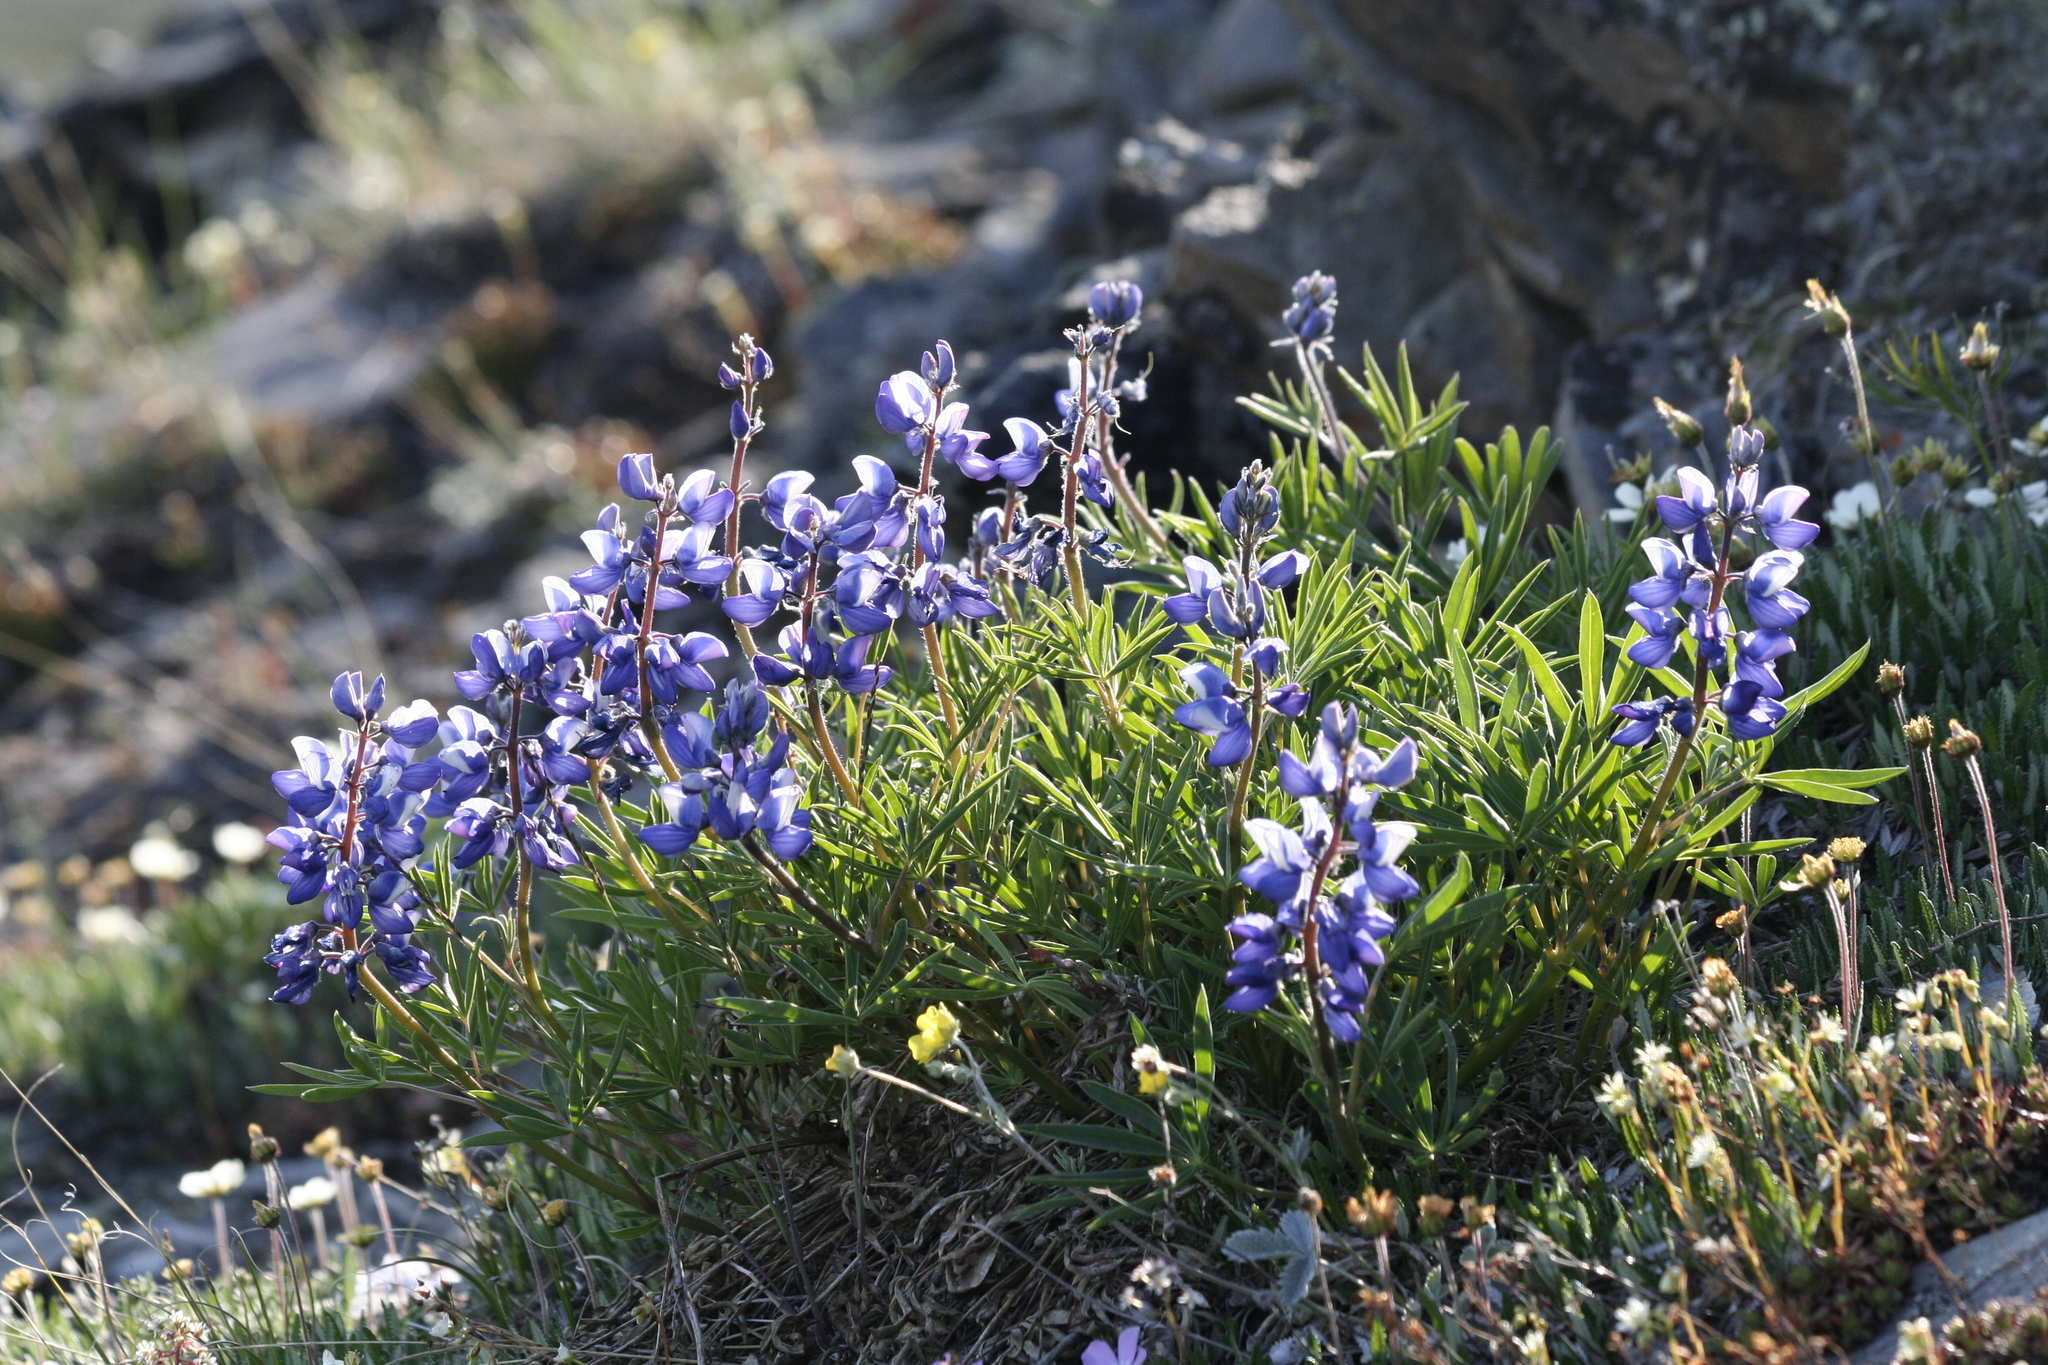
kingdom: Plantae
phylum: Tracheophyta
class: Magnoliopsida
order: Fabales
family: Fabaceae
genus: Lupinus
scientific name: Lupinus arcticus
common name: Arctic lupine
